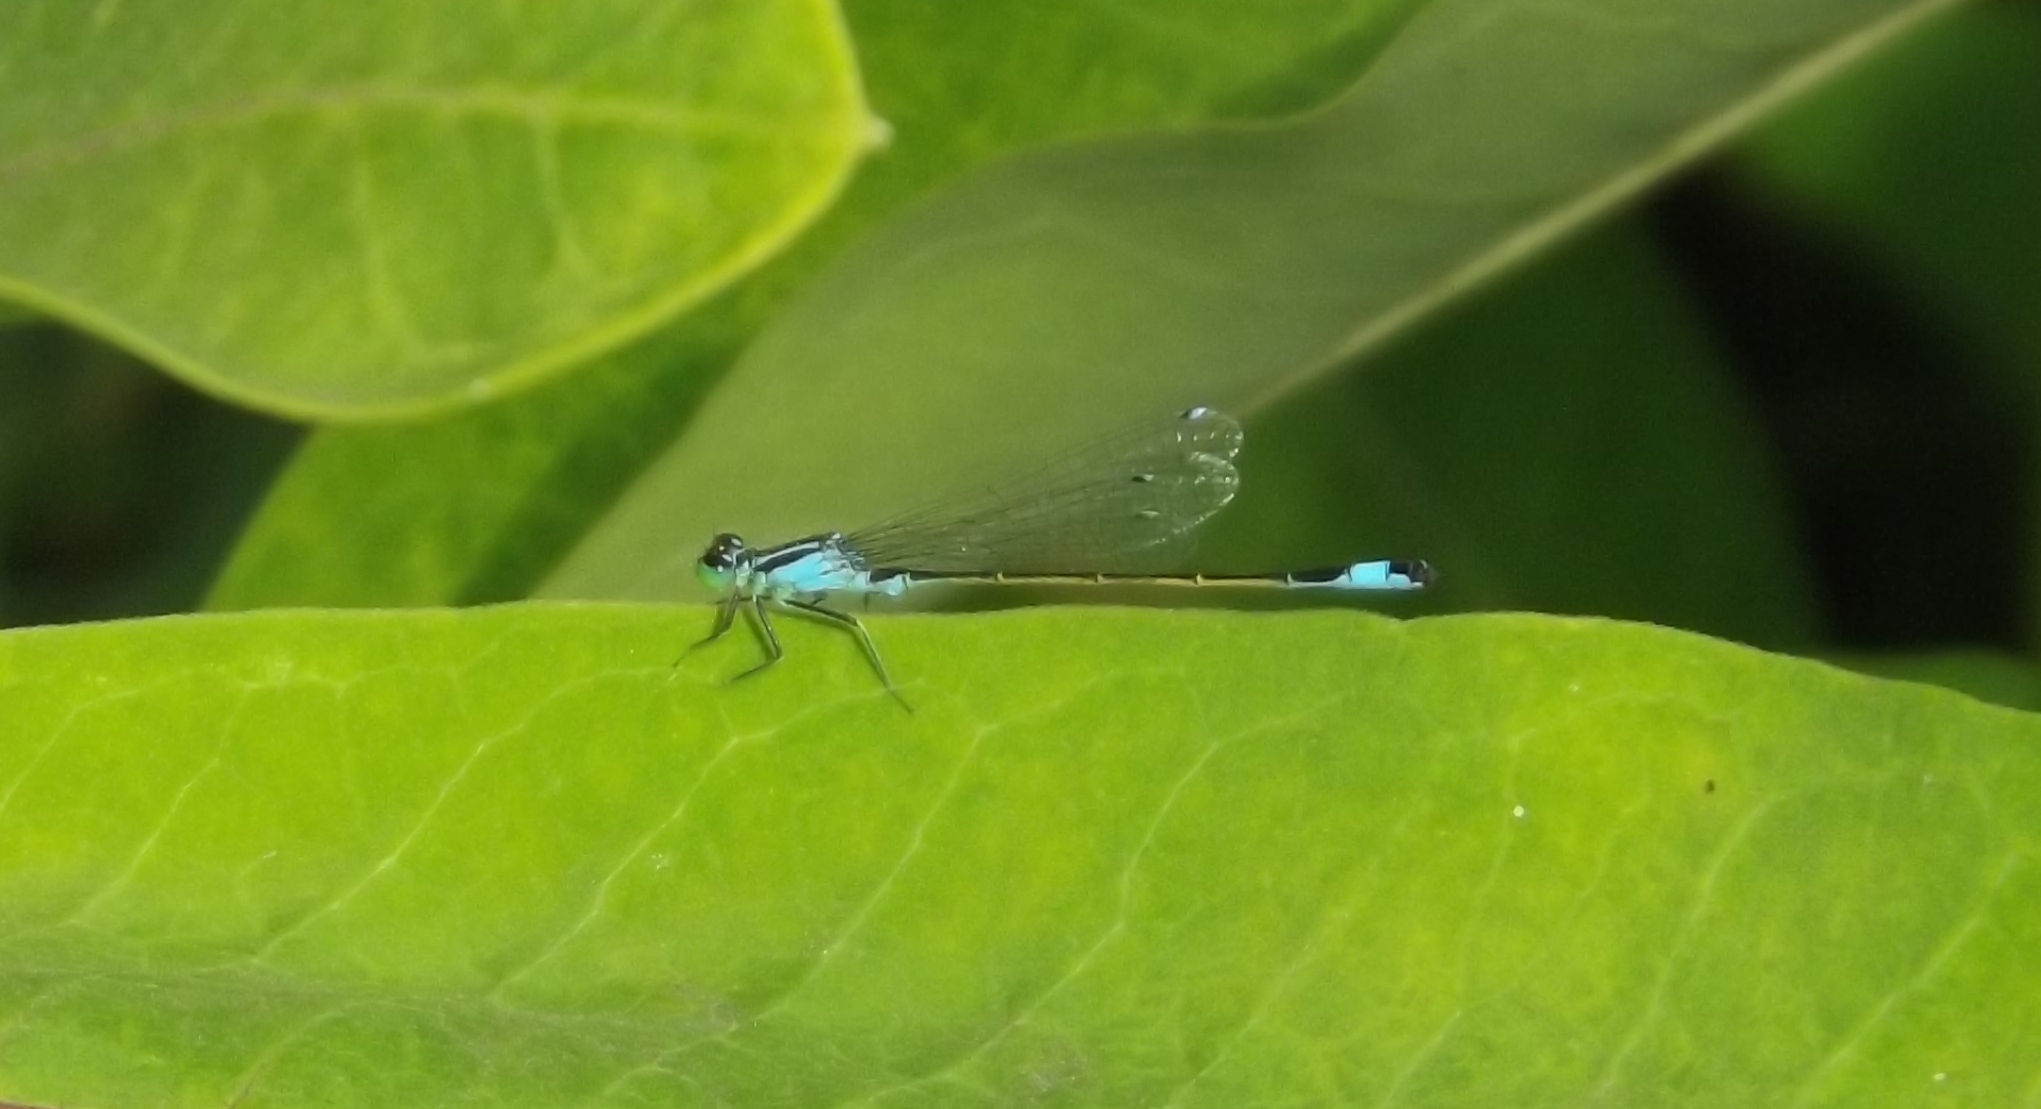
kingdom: Animalia
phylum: Arthropoda
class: Insecta
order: Odonata
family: Coenagrionidae
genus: Ischnura
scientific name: Ischnura elegans
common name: Blue-tailed damselfly
